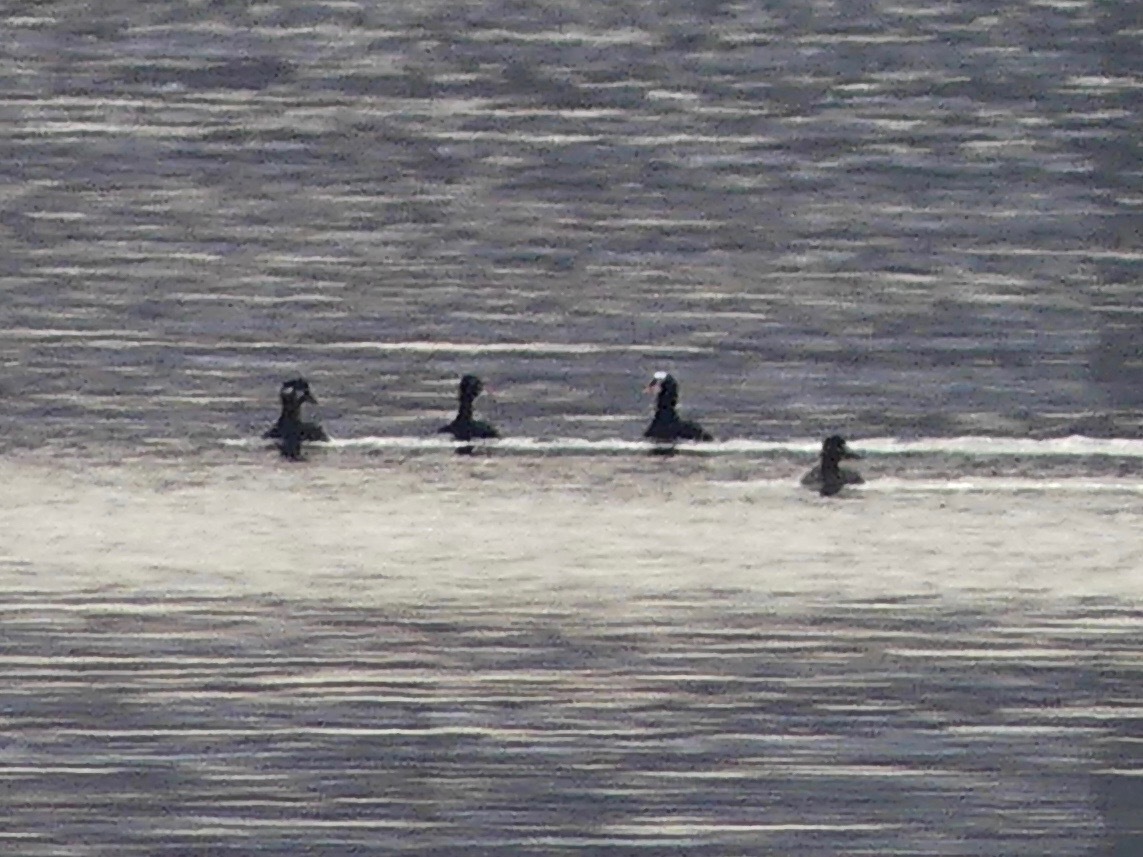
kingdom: Animalia
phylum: Chordata
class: Aves
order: Anseriformes
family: Anatidae
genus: Melanitta
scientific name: Melanitta perspicillata
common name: Surf scoter
